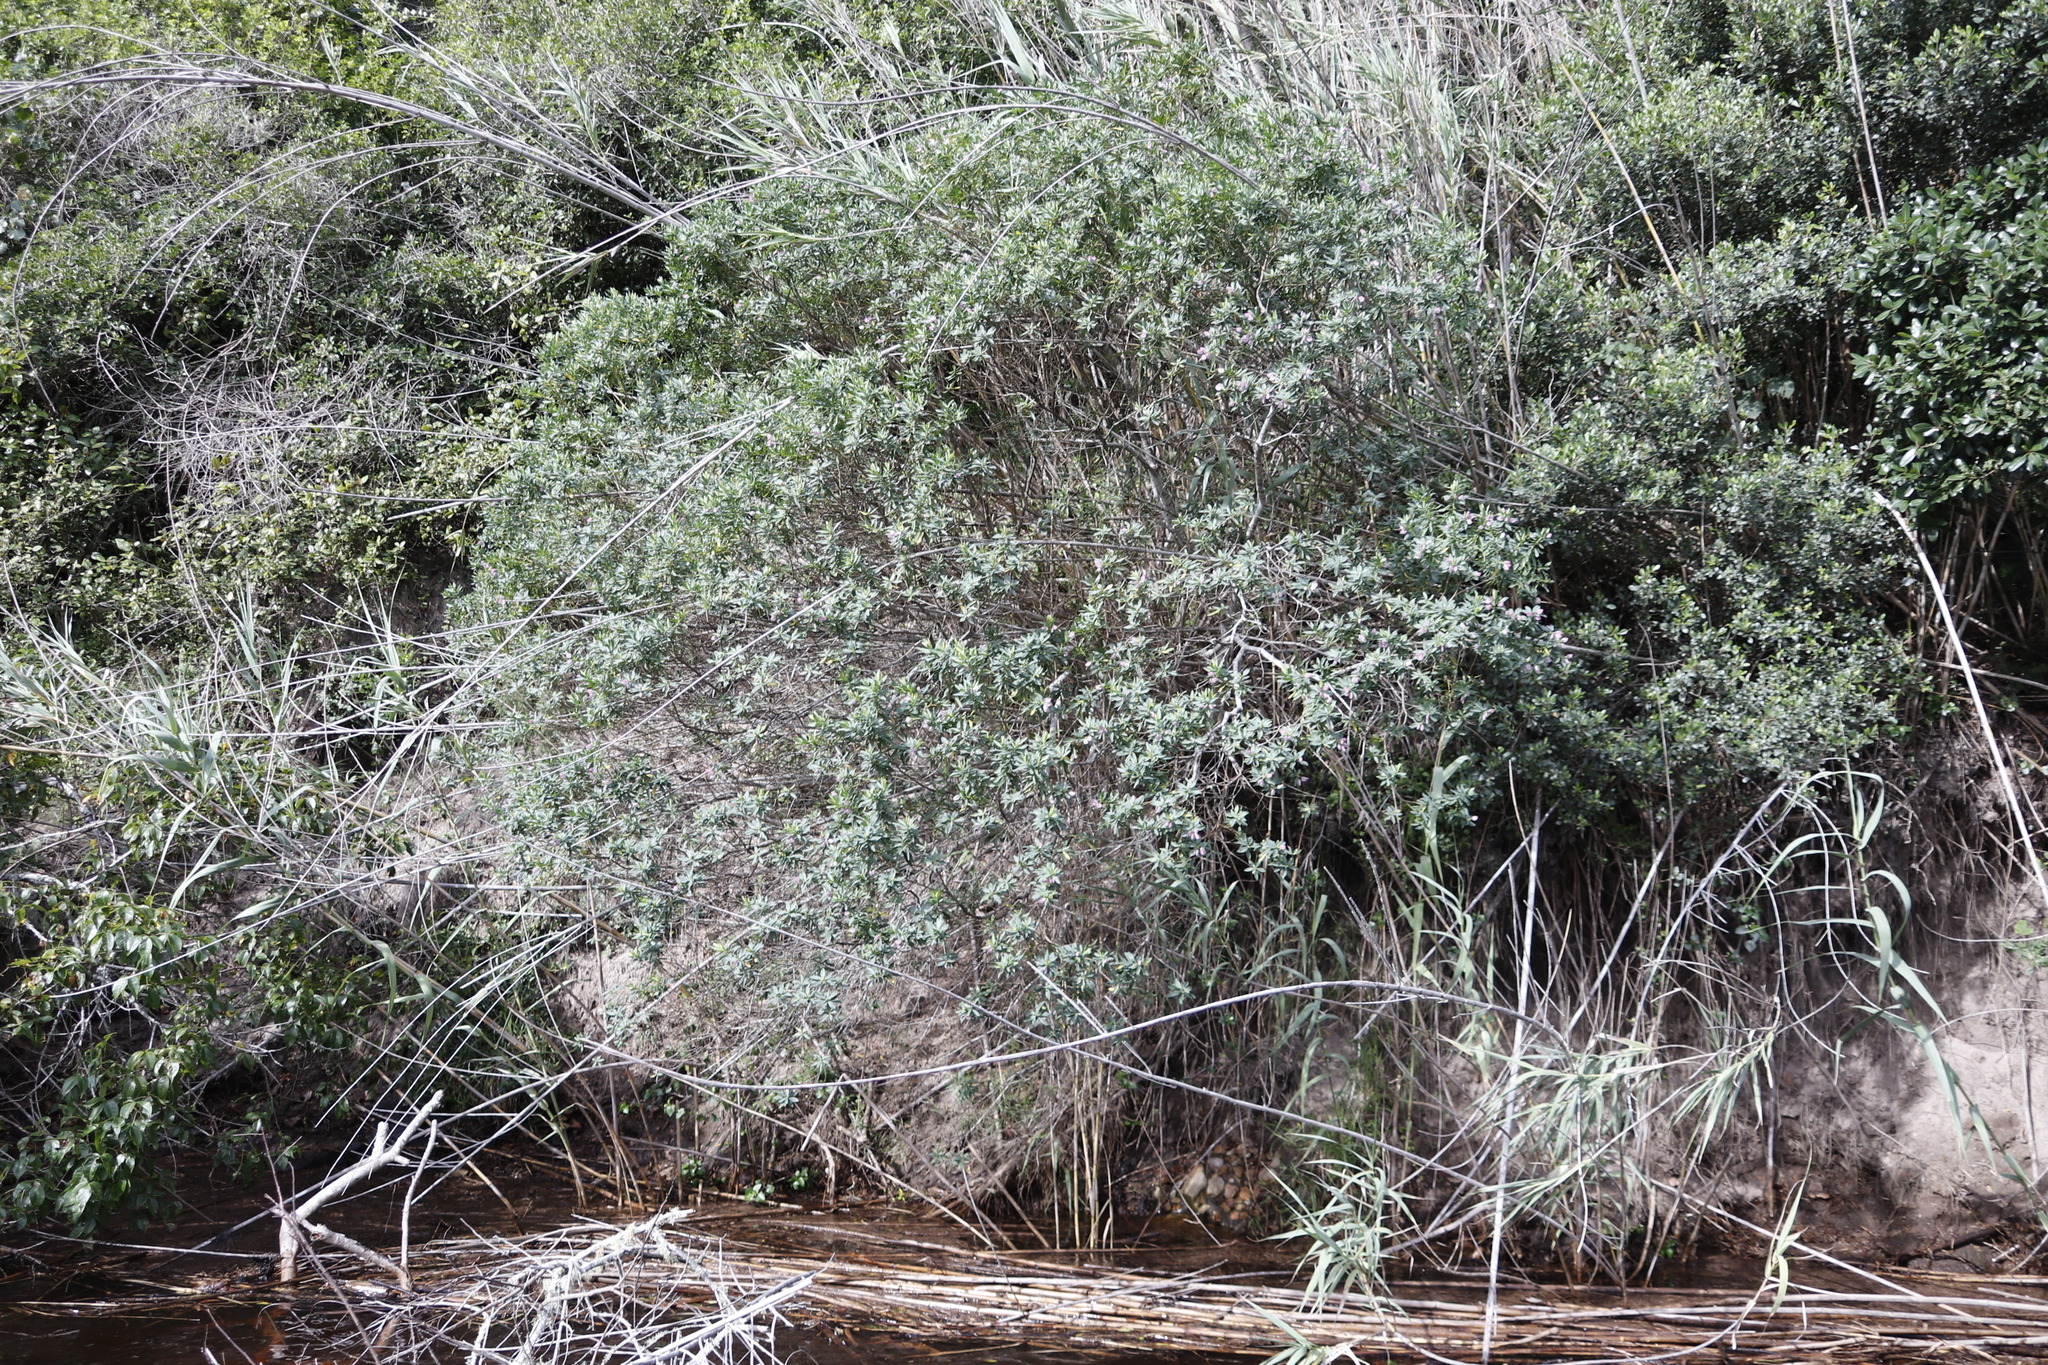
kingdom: Plantae
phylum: Tracheophyta
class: Magnoliopsida
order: Fabales
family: Polygalaceae
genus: Polygala
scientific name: Polygala myrtifolia
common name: Myrtle-leaf milkwort
